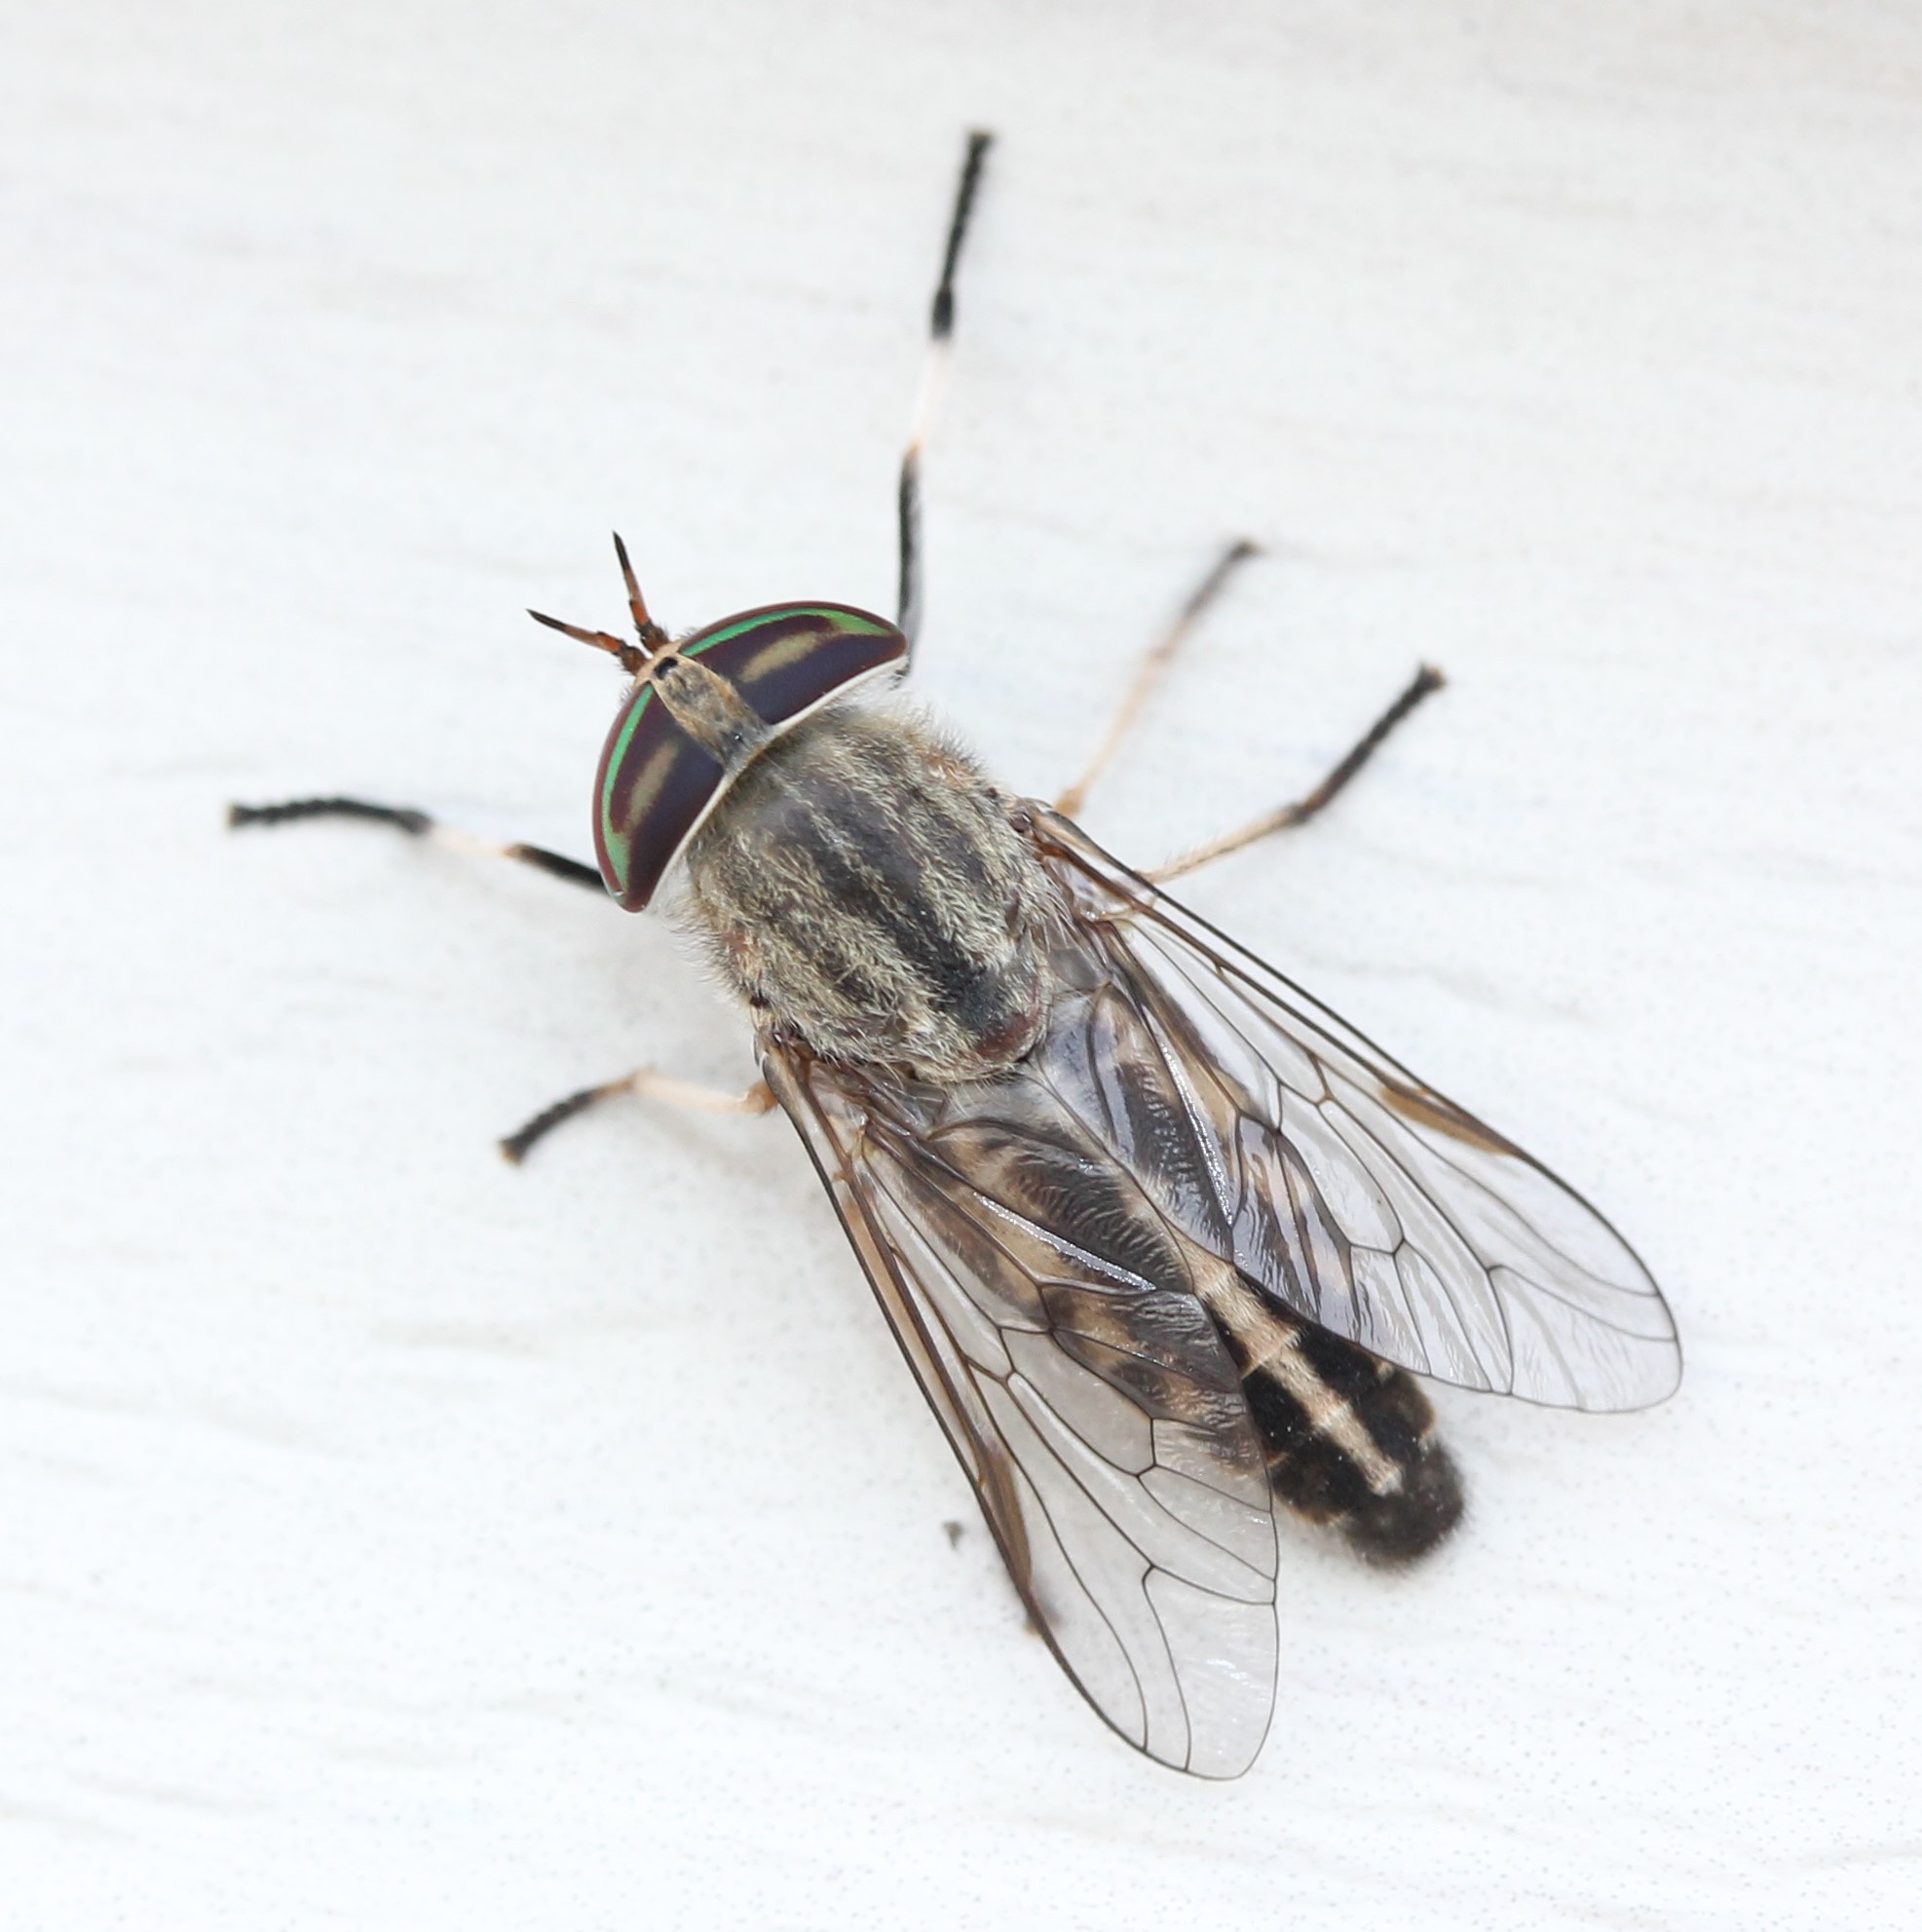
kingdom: Animalia
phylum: Arthropoda
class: Insecta
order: Diptera
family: Tabanidae
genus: Tabanus
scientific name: Tabanus subsimilis
